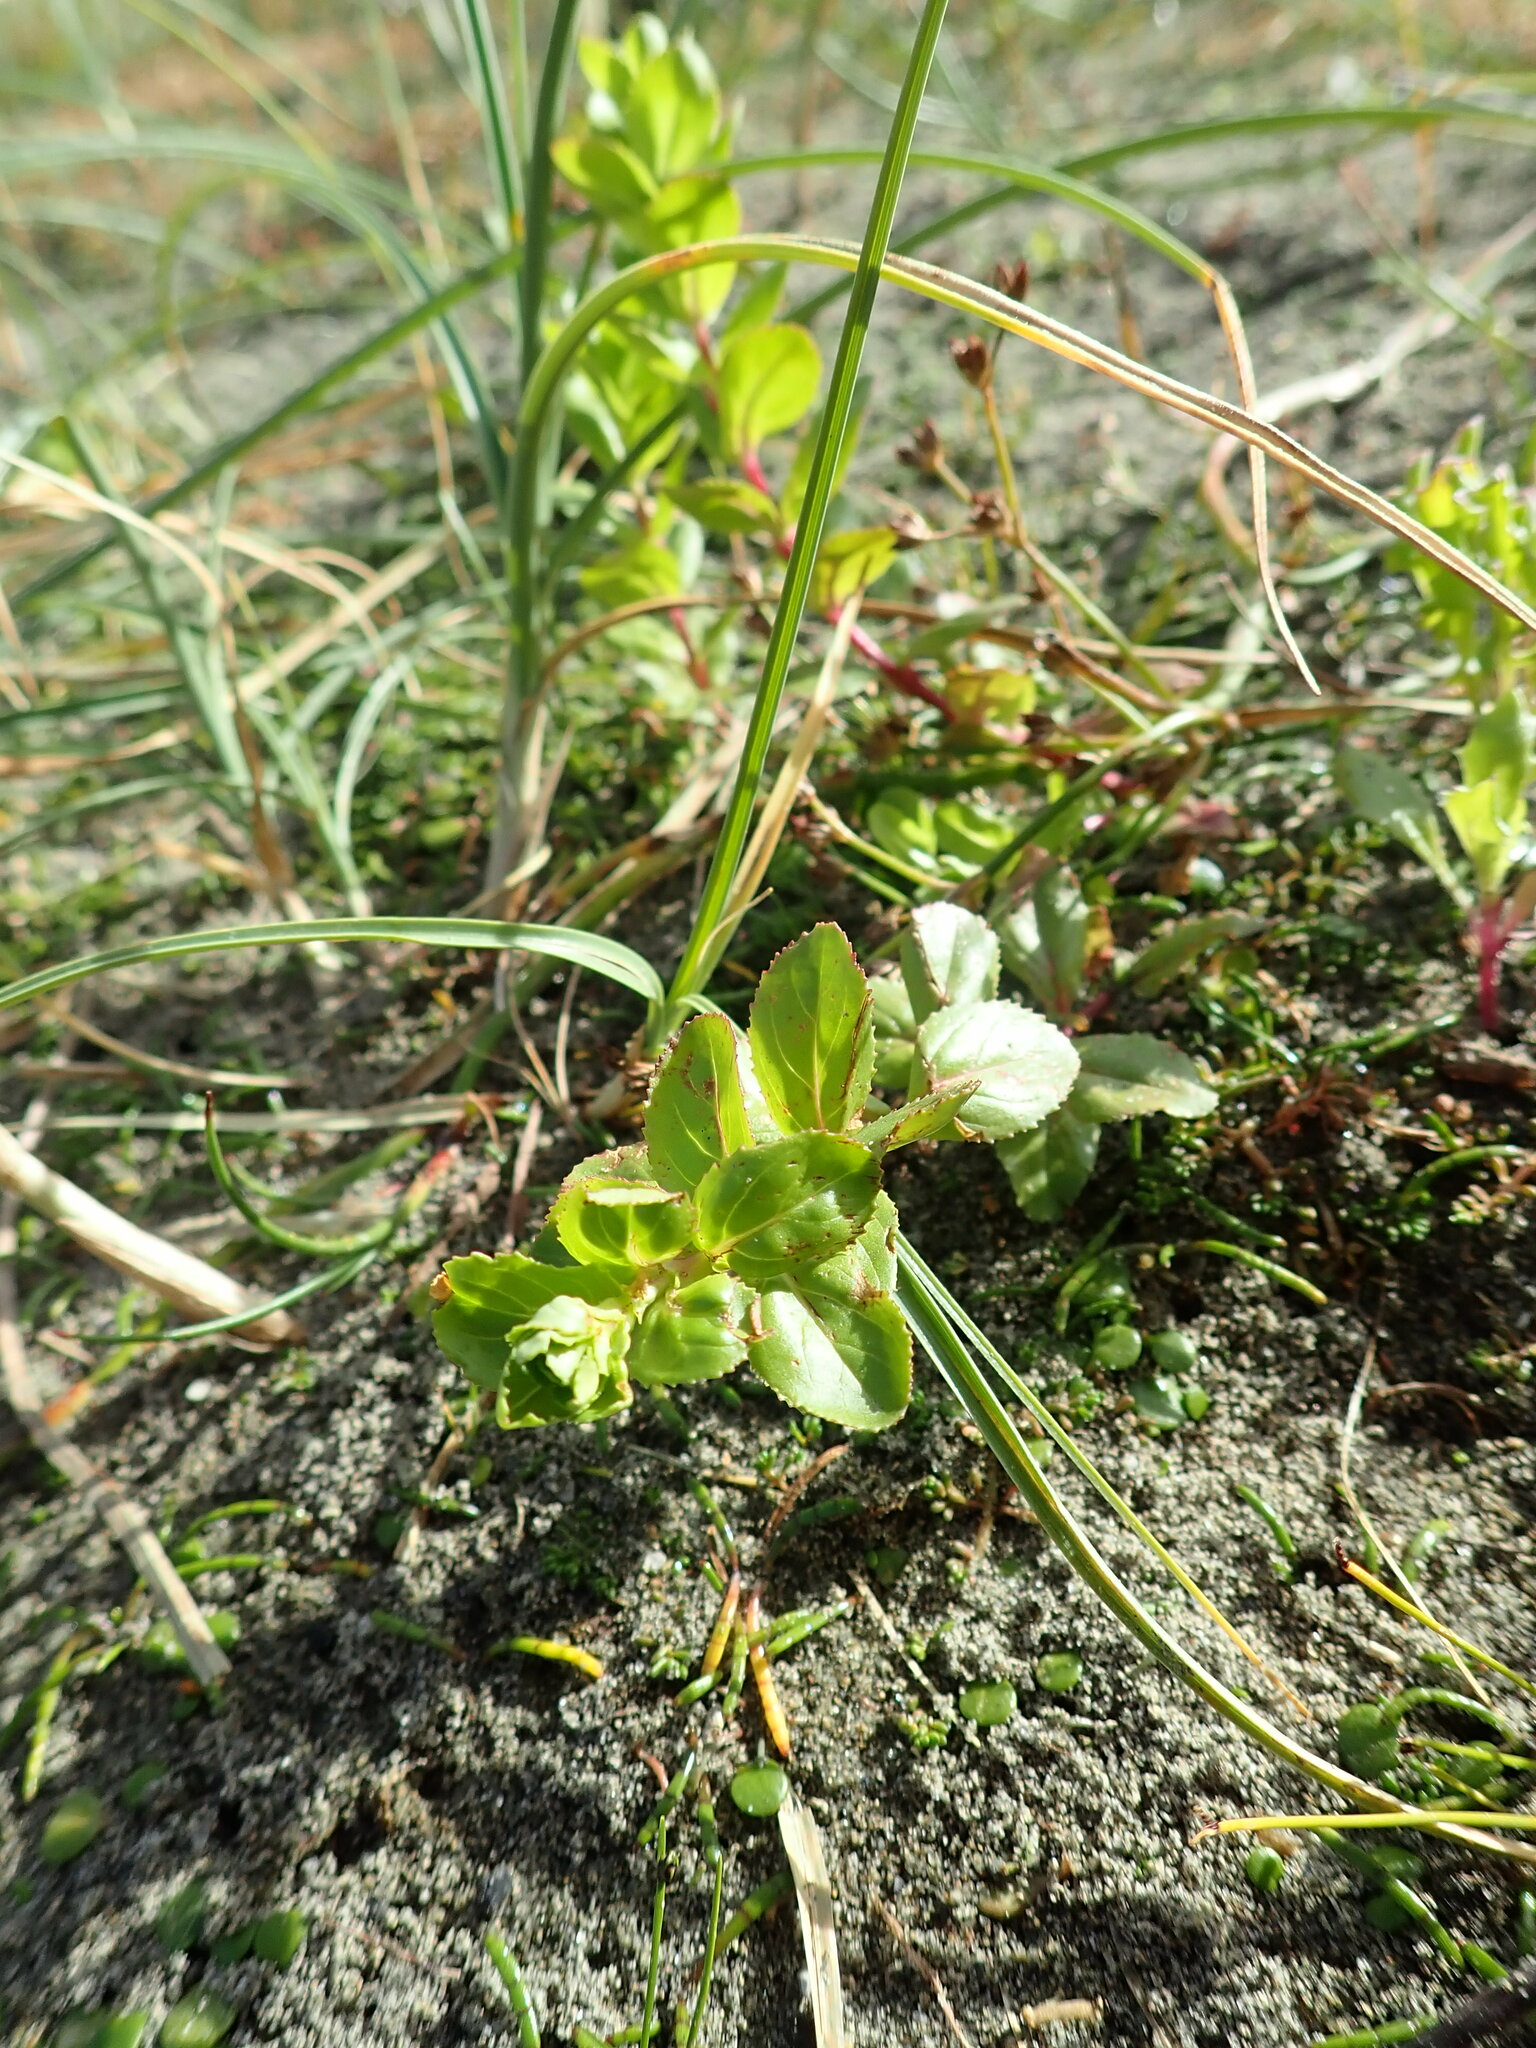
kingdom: Plantae
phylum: Tracheophyta
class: Magnoliopsida
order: Myrtales
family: Onagraceae
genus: Epilobium
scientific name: Epilobium billardiereanum
